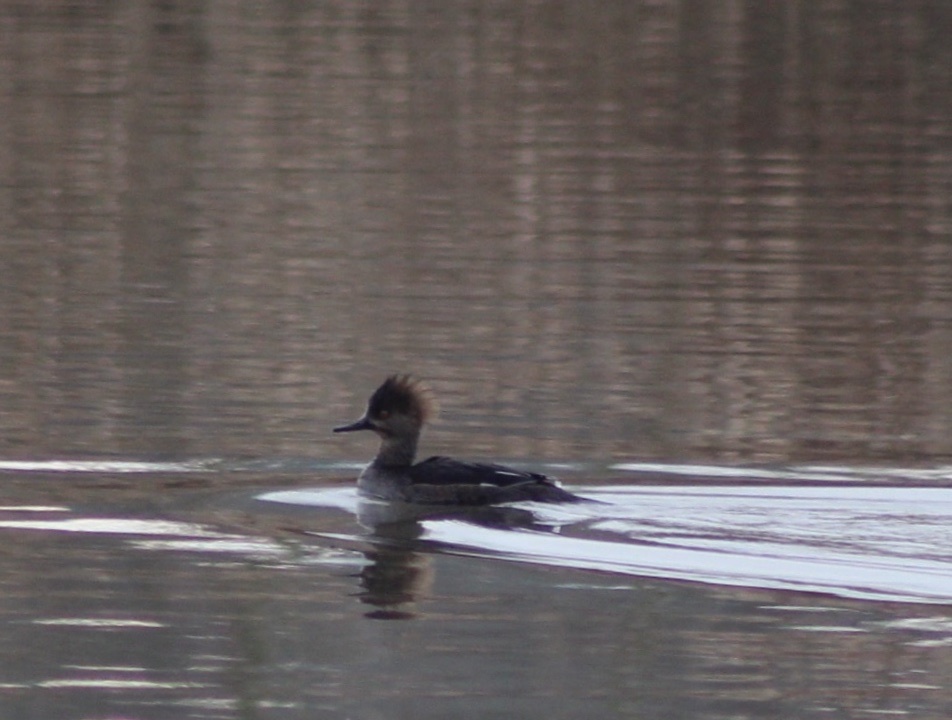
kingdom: Animalia
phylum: Chordata
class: Aves
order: Anseriformes
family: Anatidae
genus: Lophodytes
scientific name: Lophodytes cucullatus
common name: Hooded merganser
